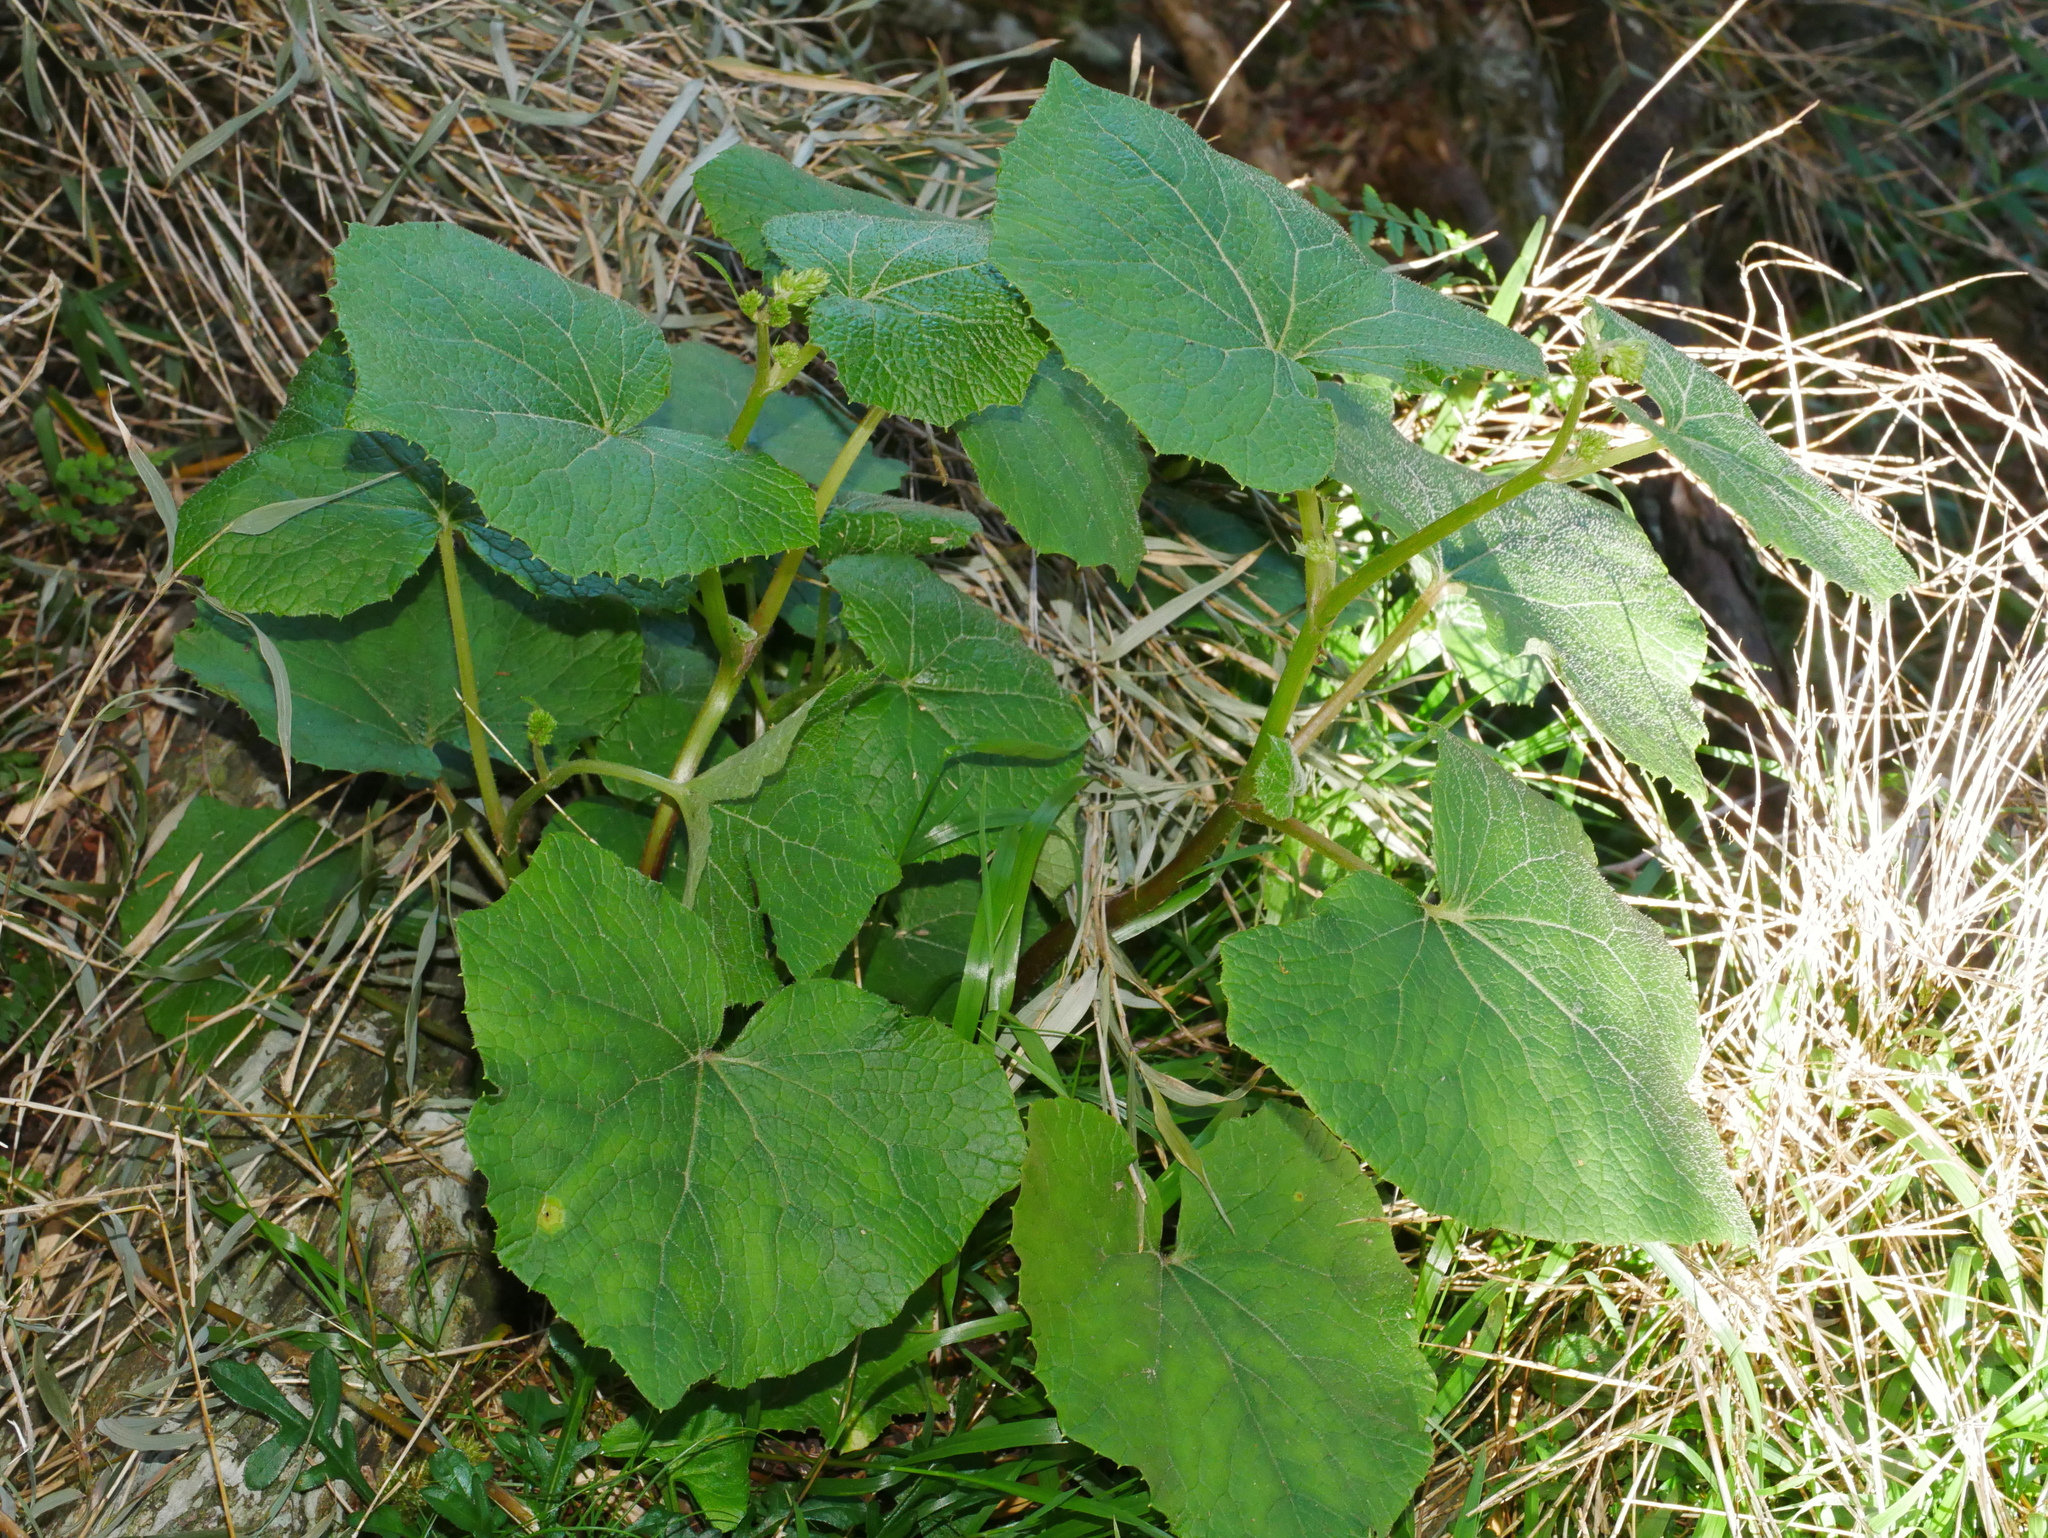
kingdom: Plantae
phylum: Tracheophyta
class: Magnoliopsida
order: Asterales
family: Asteraceae
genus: Parasenecio
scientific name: Parasenecio morrisonensis
